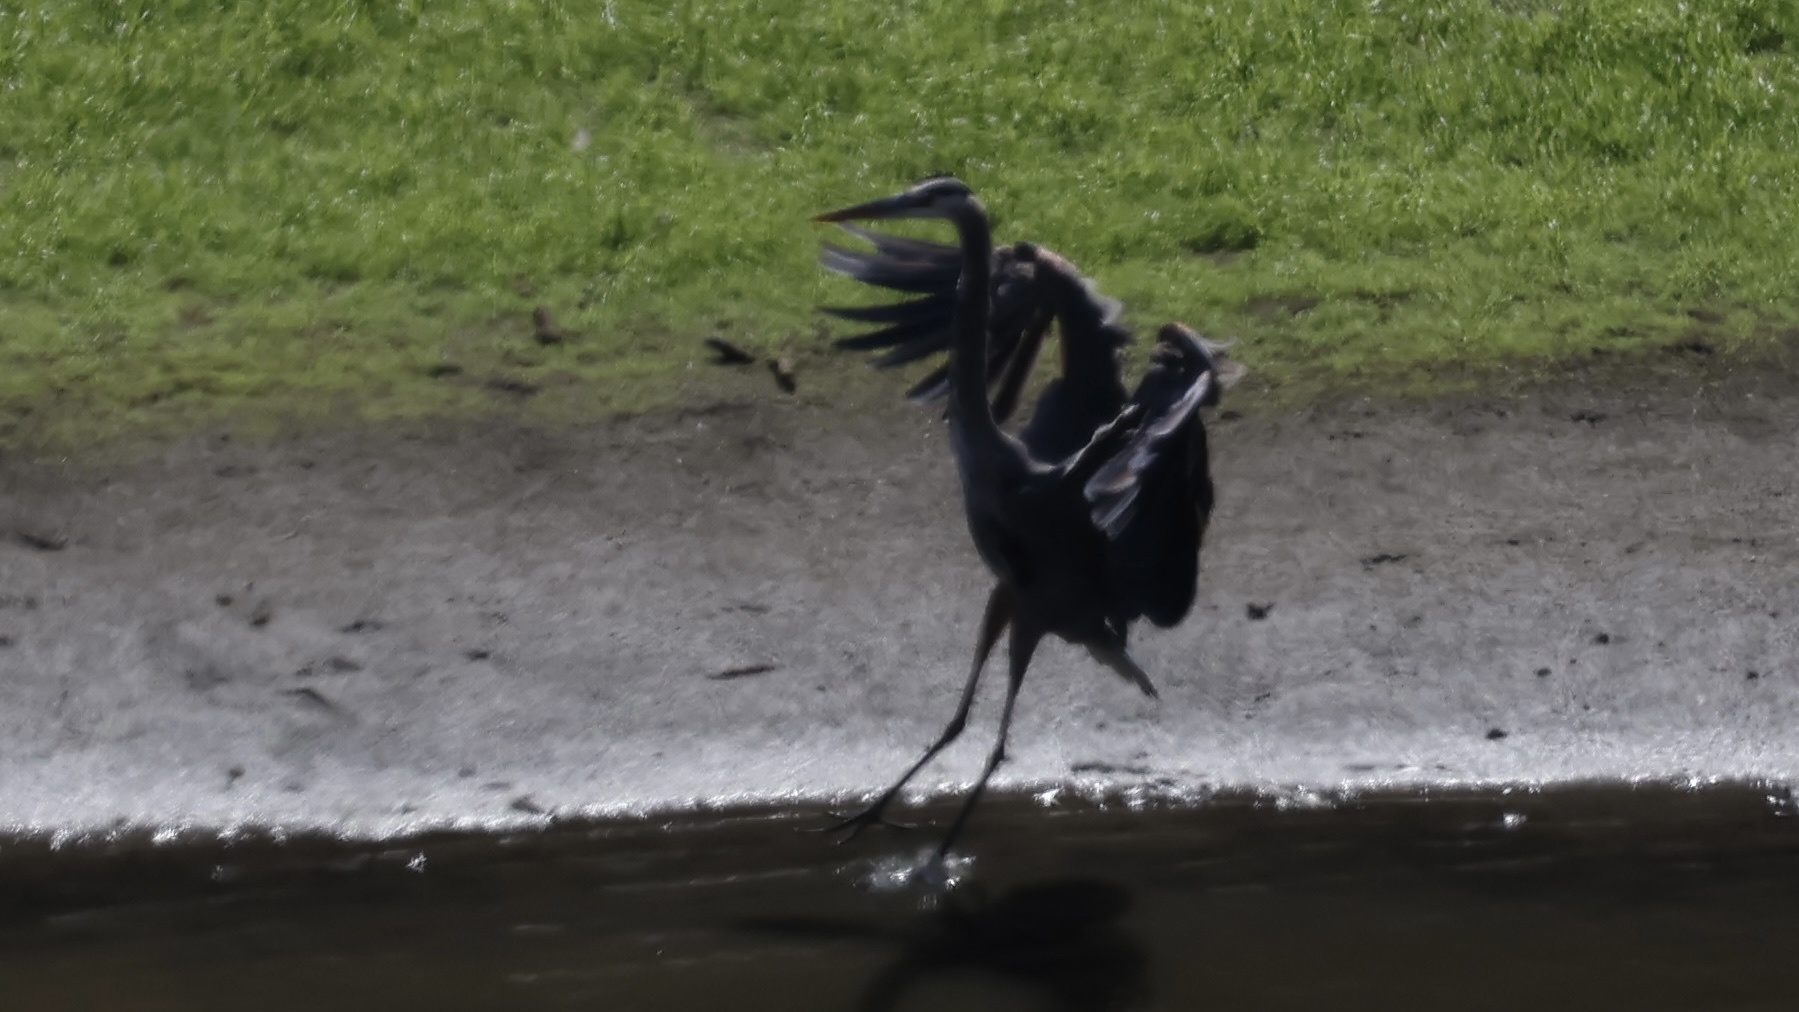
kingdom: Animalia
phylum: Chordata
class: Aves
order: Pelecaniformes
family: Ardeidae
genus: Ardea
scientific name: Ardea herodias
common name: Great blue heron
